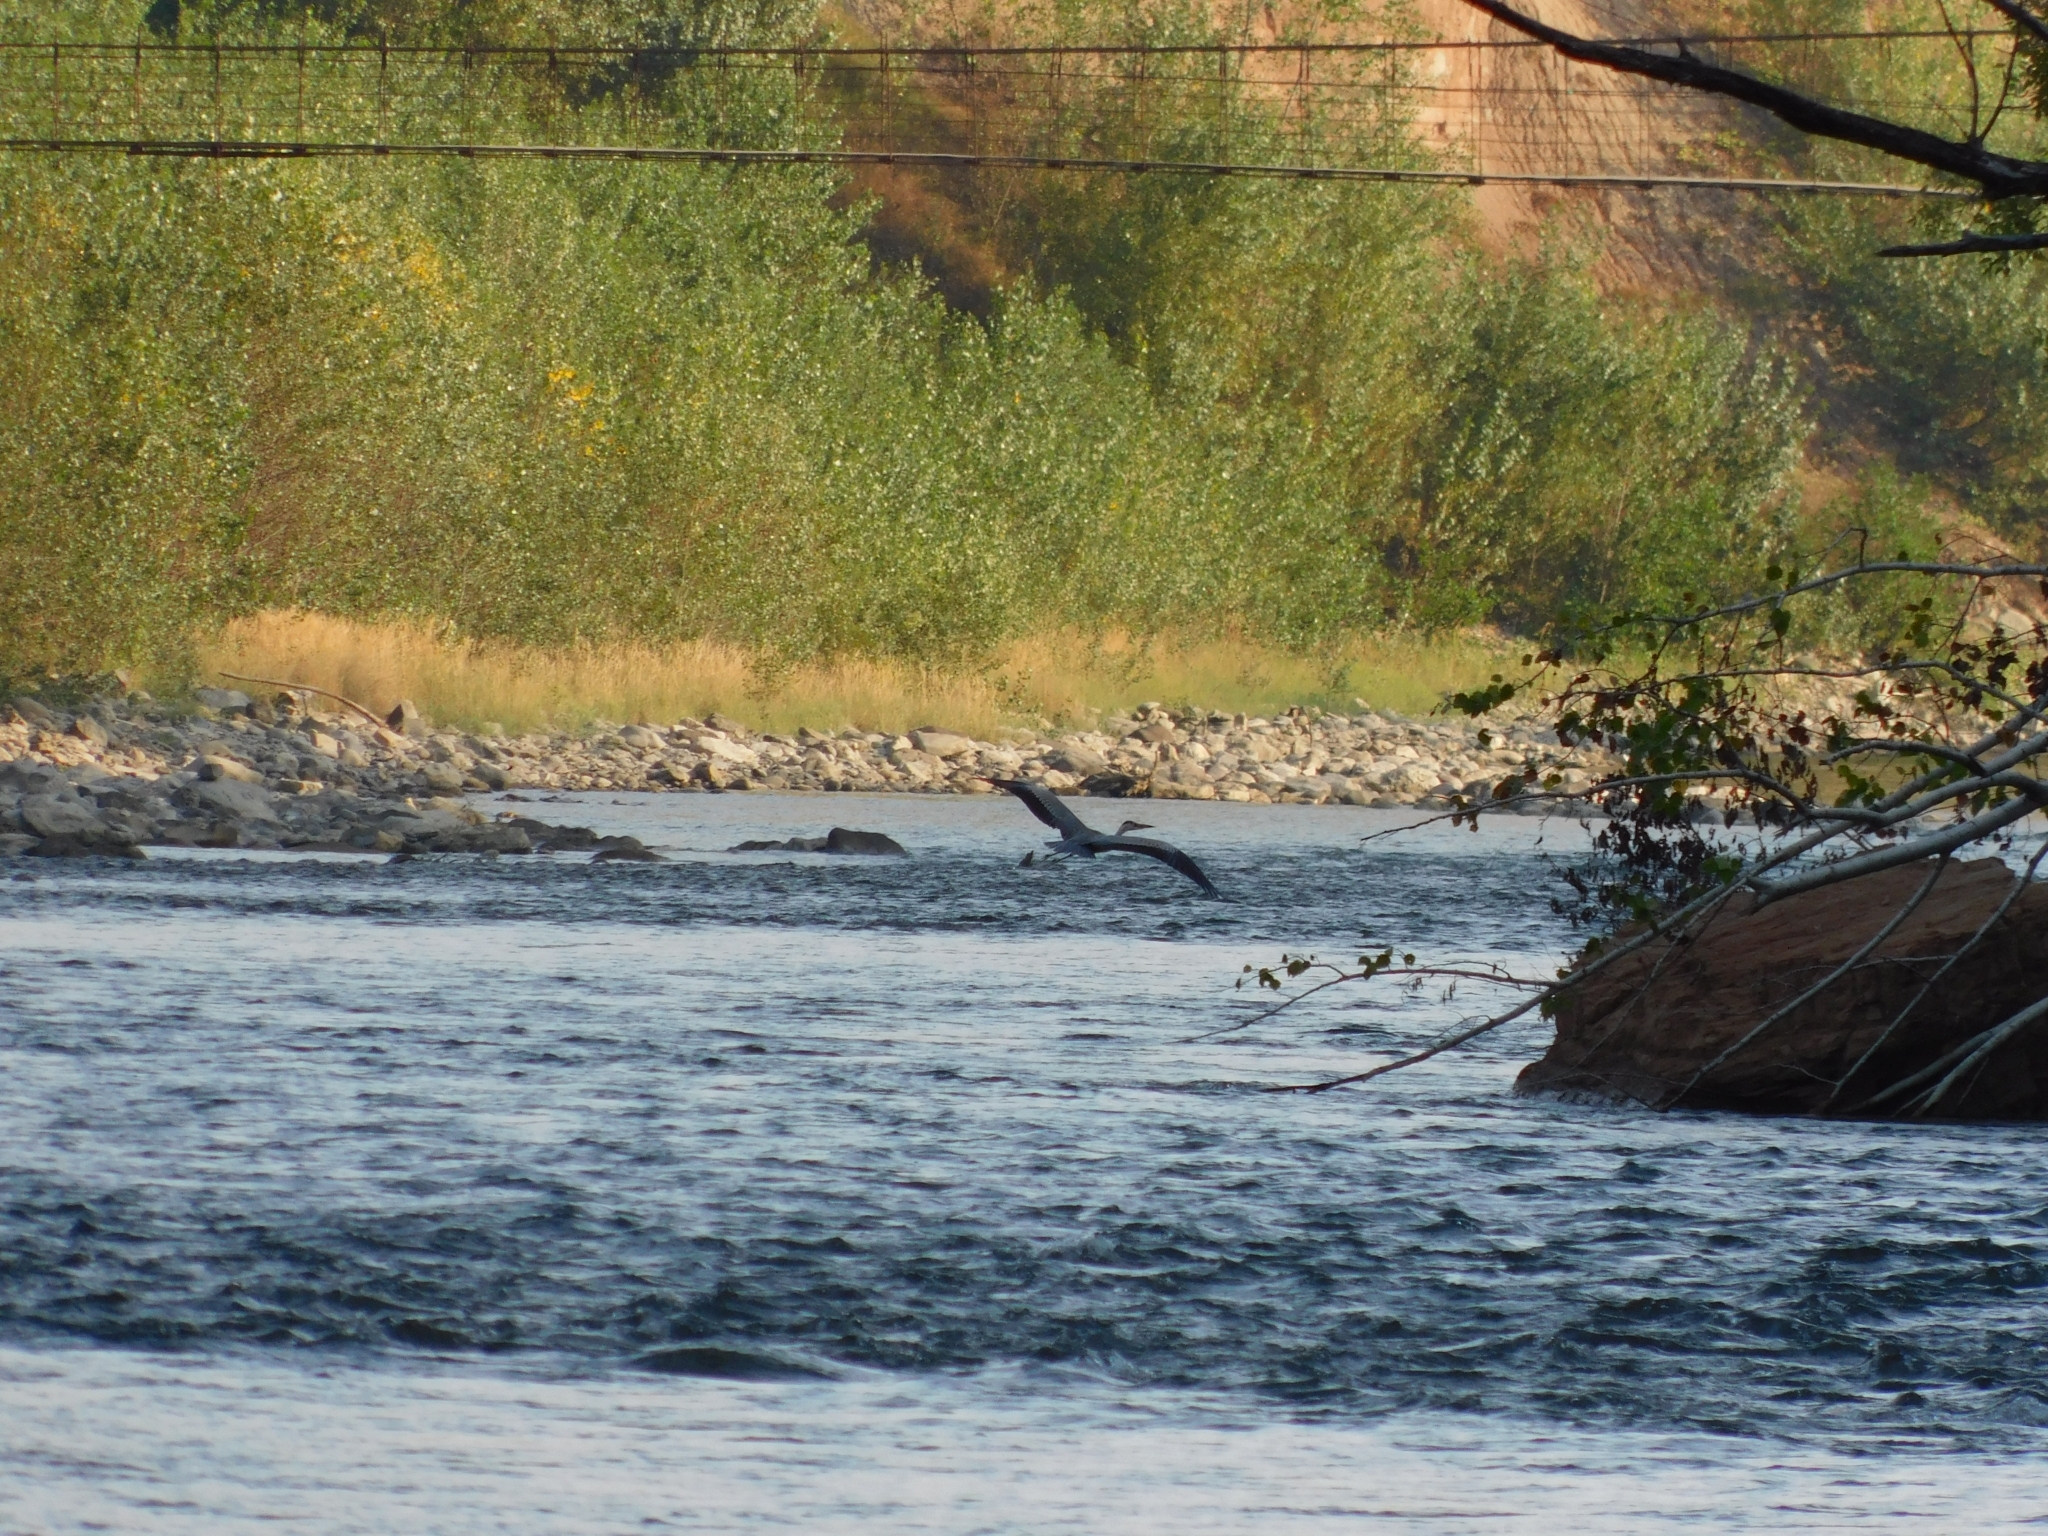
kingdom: Animalia
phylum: Chordata
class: Aves
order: Pelecaniformes
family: Ardeidae
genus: Ardea
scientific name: Ardea cinerea
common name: Grey heron
